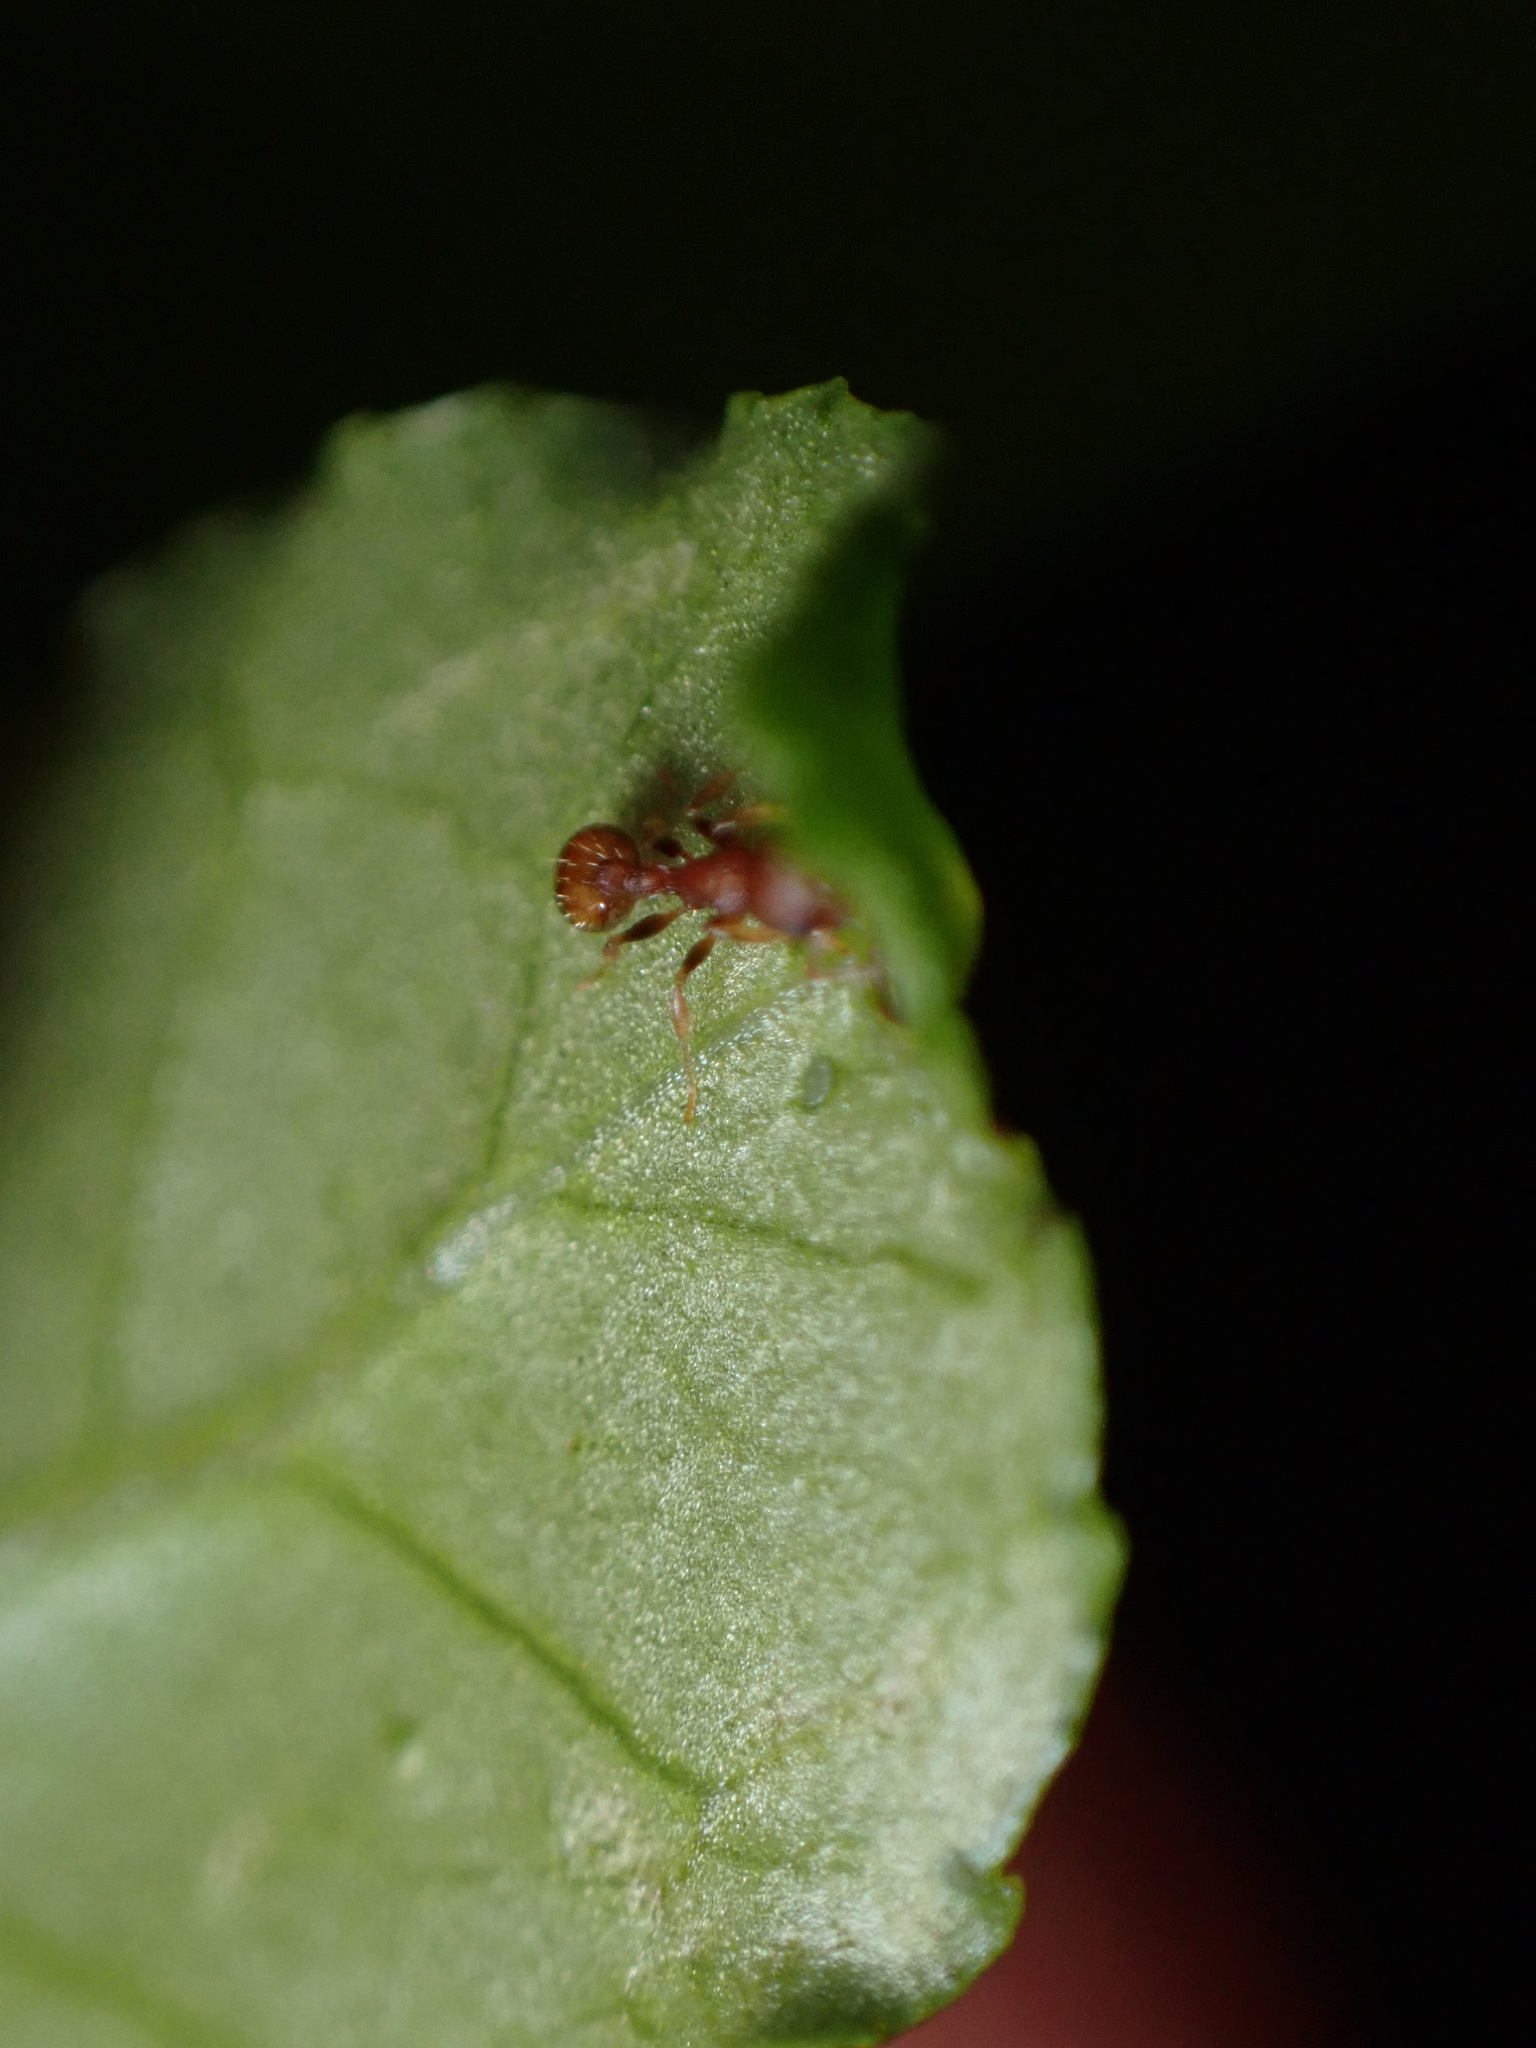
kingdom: Animalia
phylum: Arthropoda
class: Insecta
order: Hymenoptera
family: Formicidae
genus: Temnothorax
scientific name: Temnothorax curvispinosus
